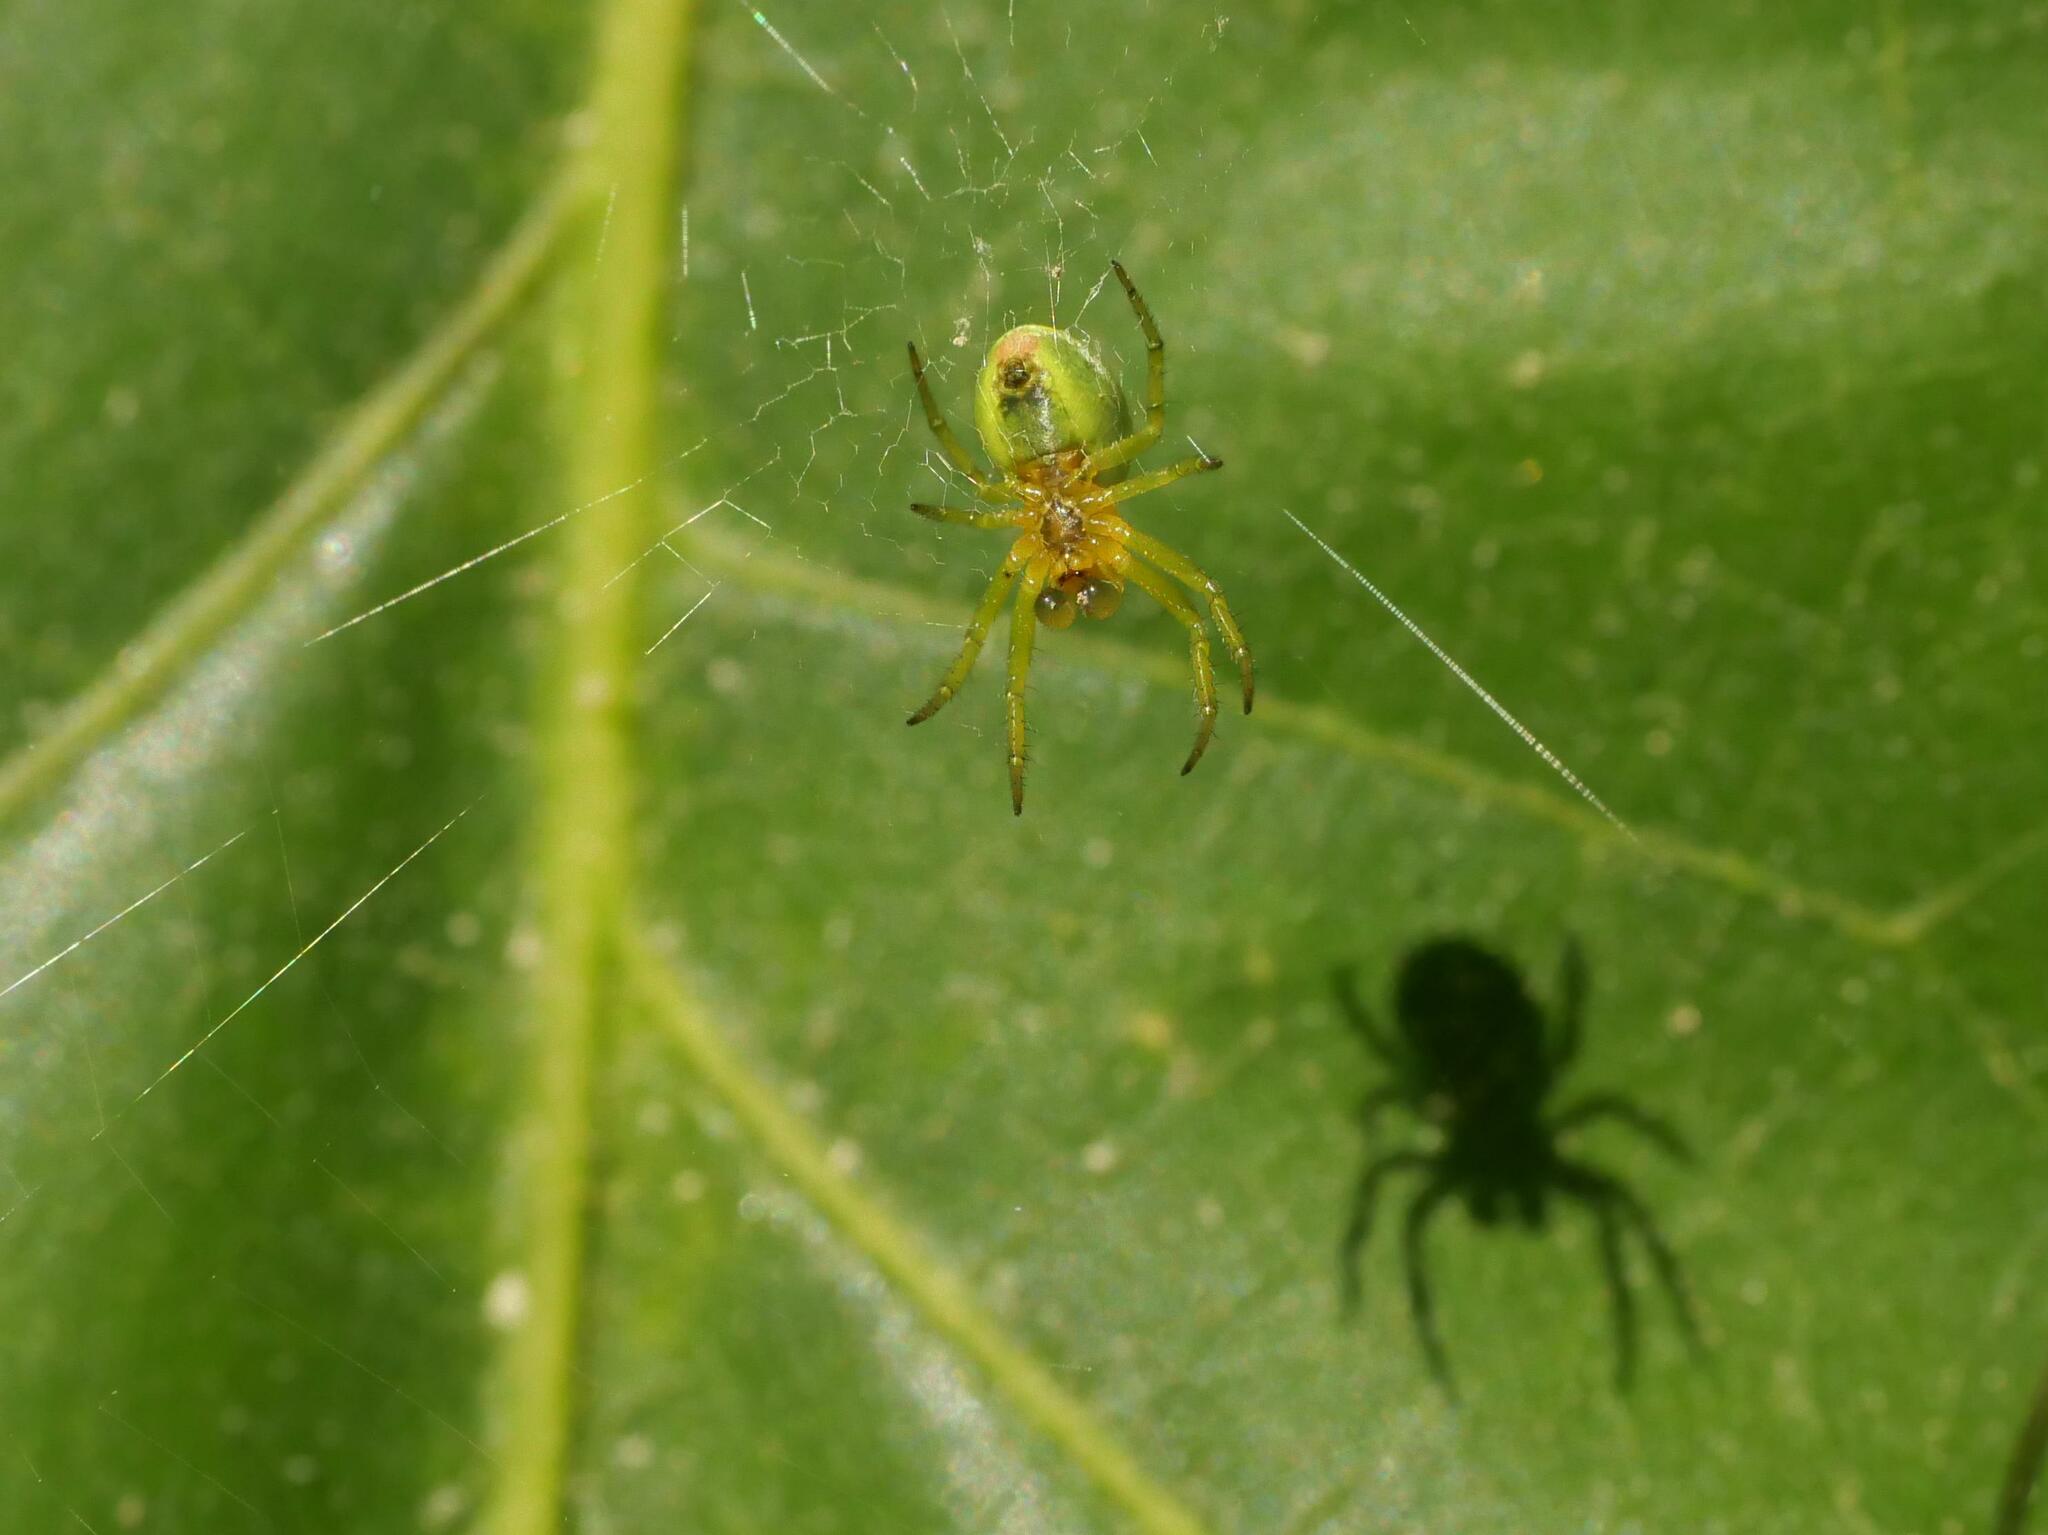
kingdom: Animalia
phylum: Arthropoda
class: Arachnida
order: Araneae
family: Araneidae
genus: Araniella
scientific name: Araniella
